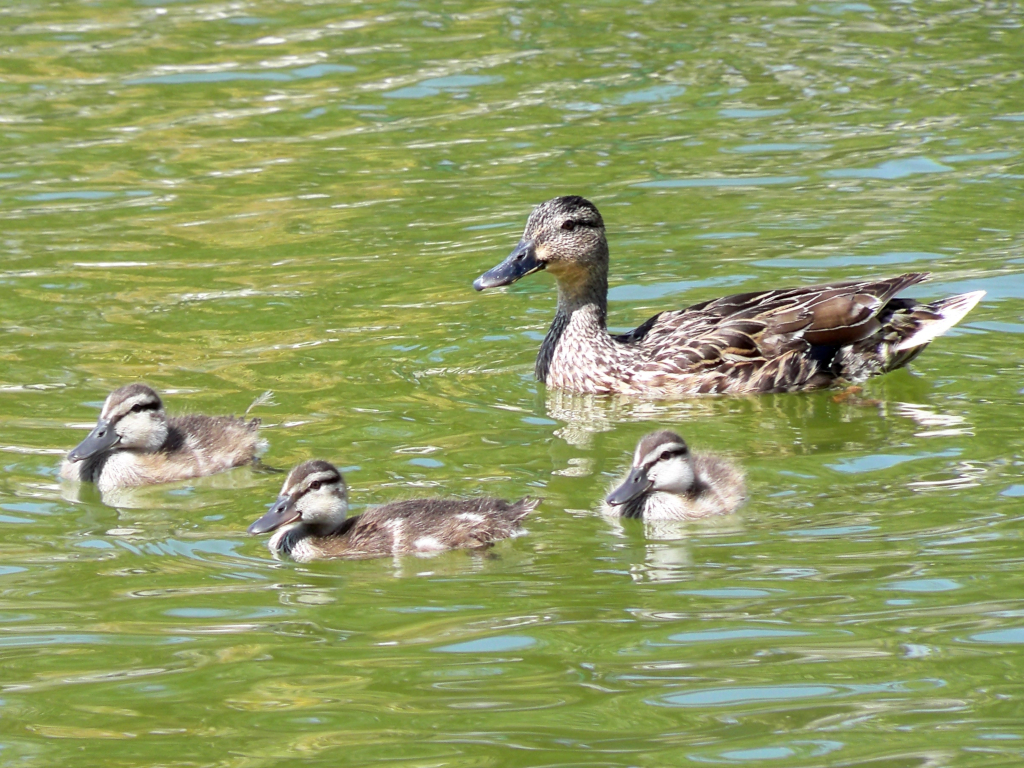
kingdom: Animalia
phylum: Chordata
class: Aves
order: Anseriformes
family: Anatidae
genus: Anas
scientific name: Anas platyrhynchos
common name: Mallard
